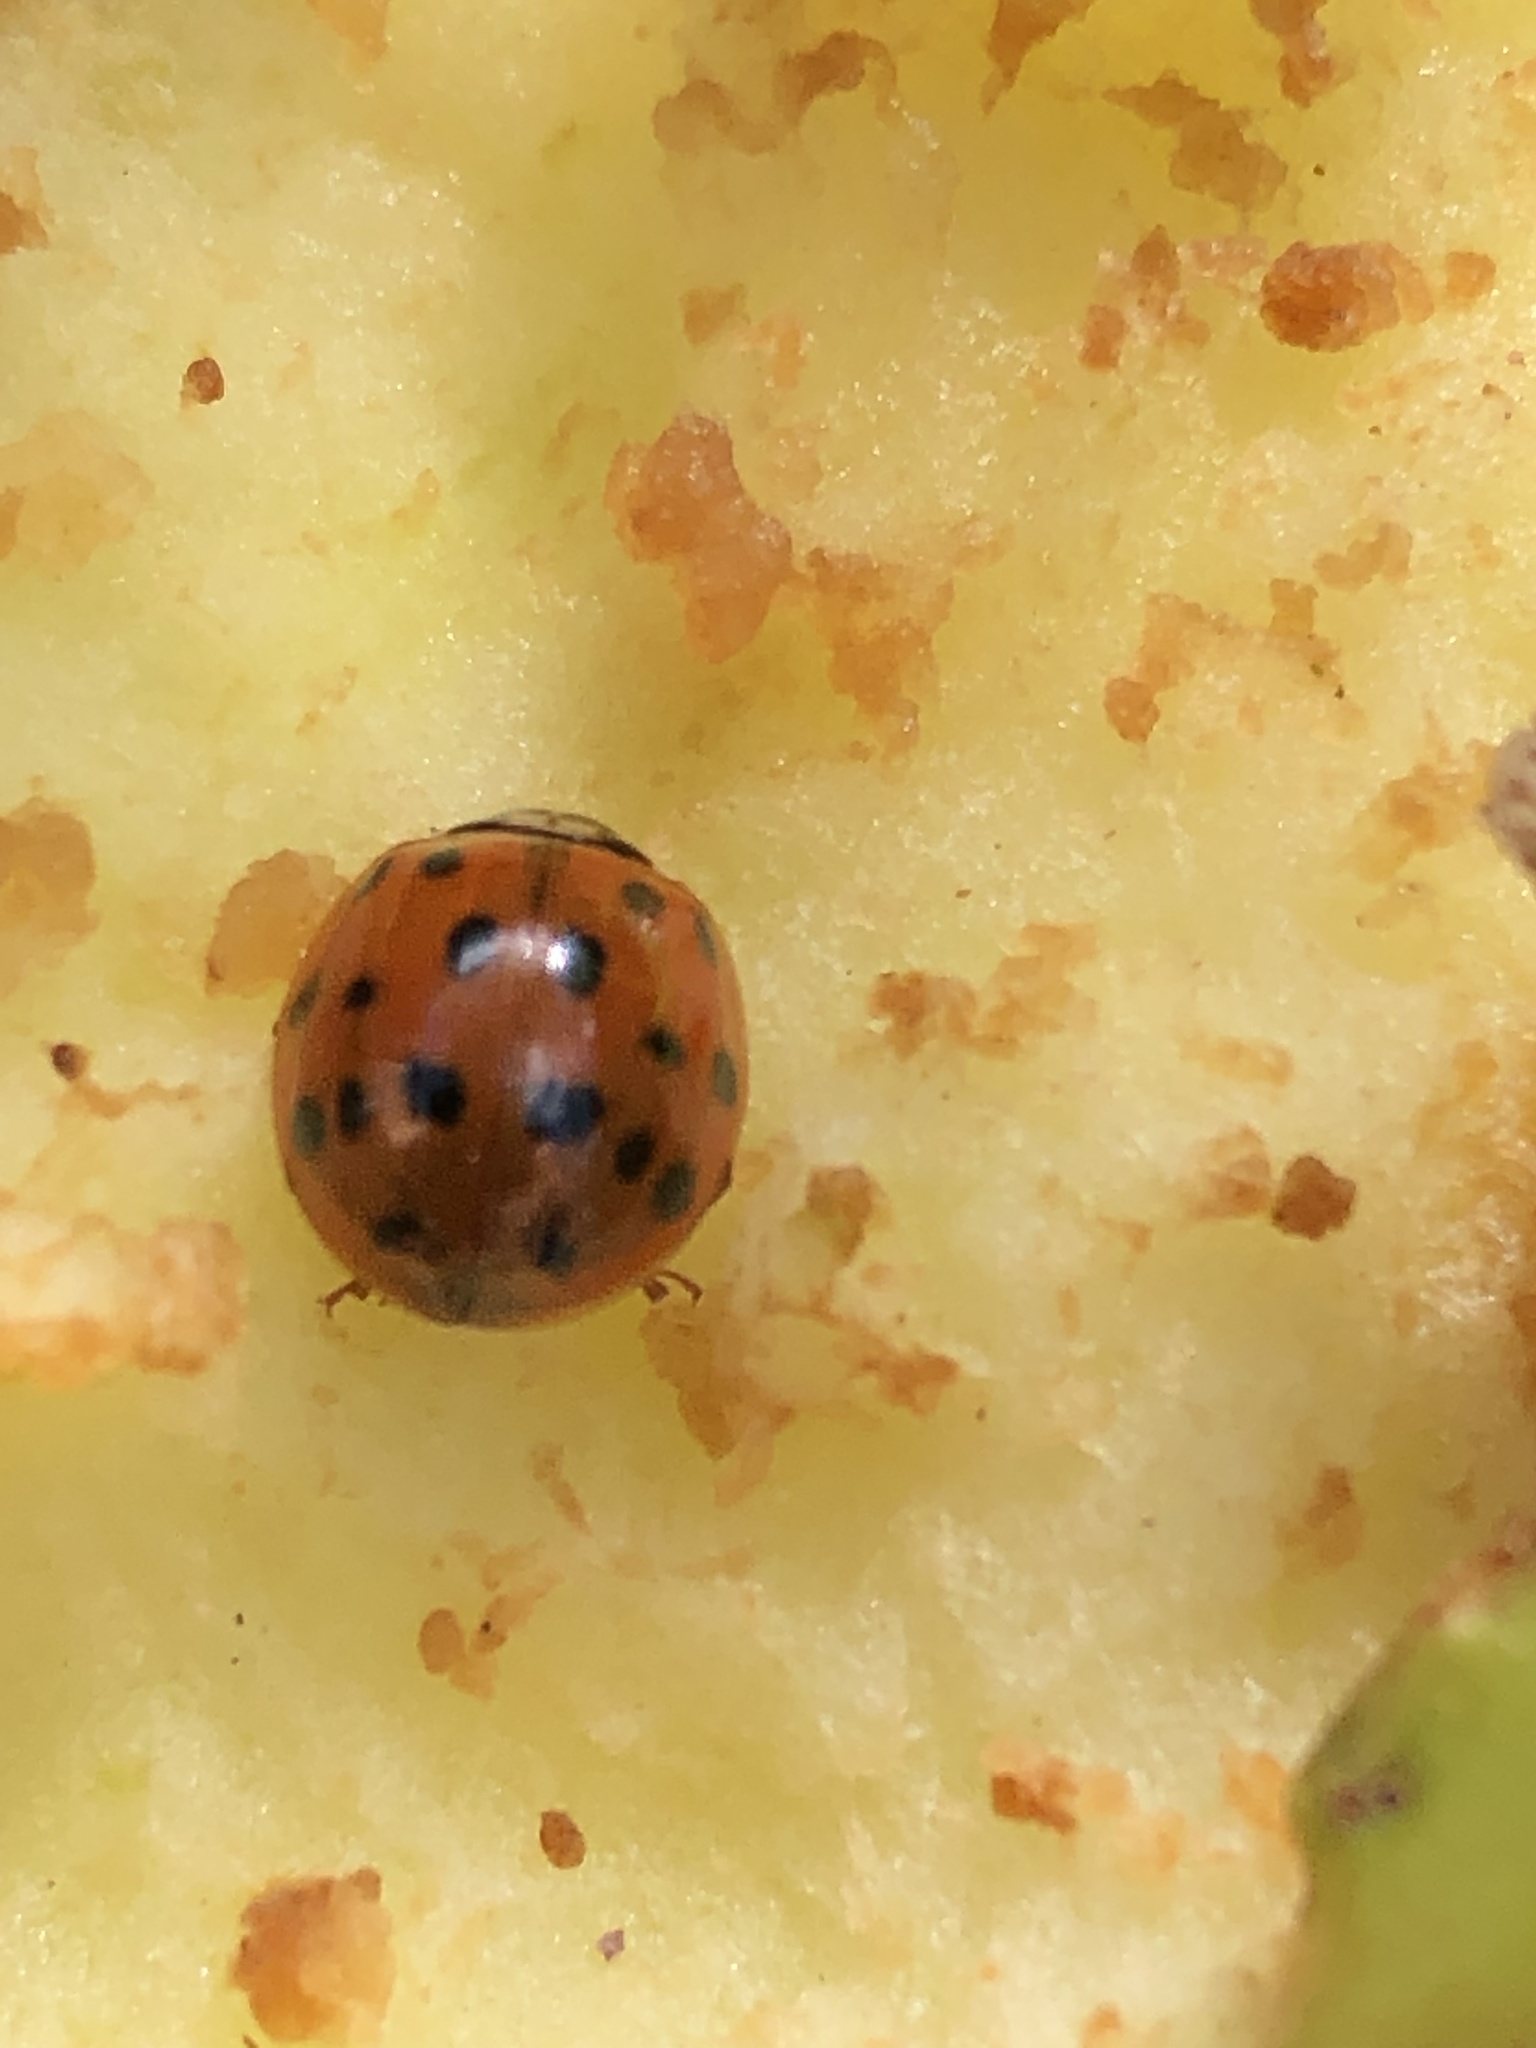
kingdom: Animalia
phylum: Arthropoda
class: Insecta
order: Coleoptera
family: Coccinellidae
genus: Harmonia
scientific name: Harmonia axyridis
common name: Harlequin ladybird
